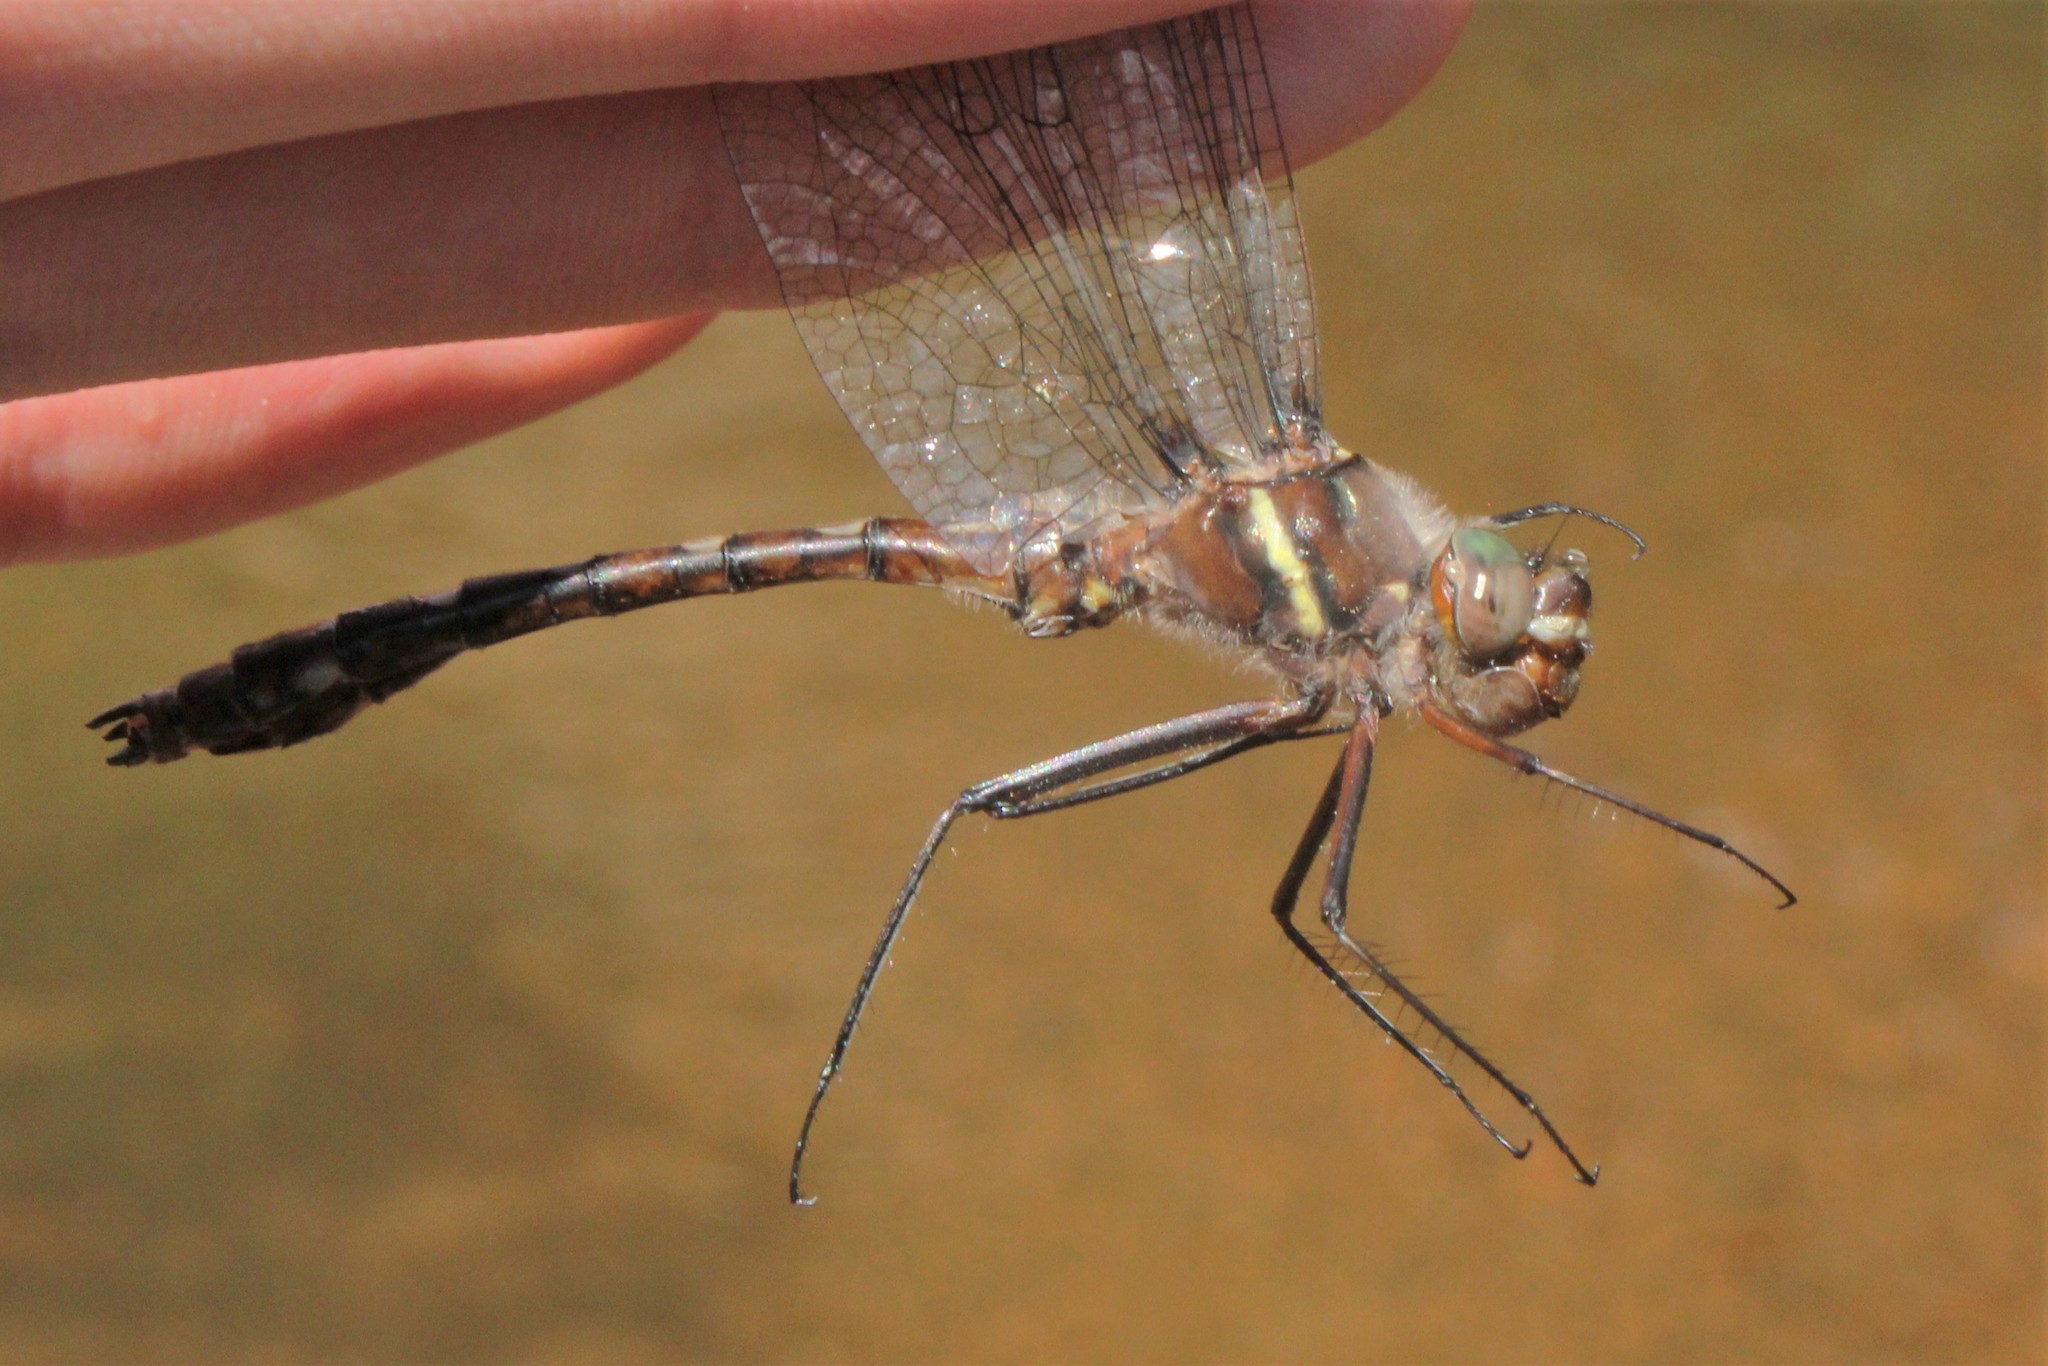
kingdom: Animalia
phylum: Arthropoda
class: Insecta
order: Odonata
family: Macromiidae
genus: Didymops
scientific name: Didymops transversa
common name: Stream cruiser
